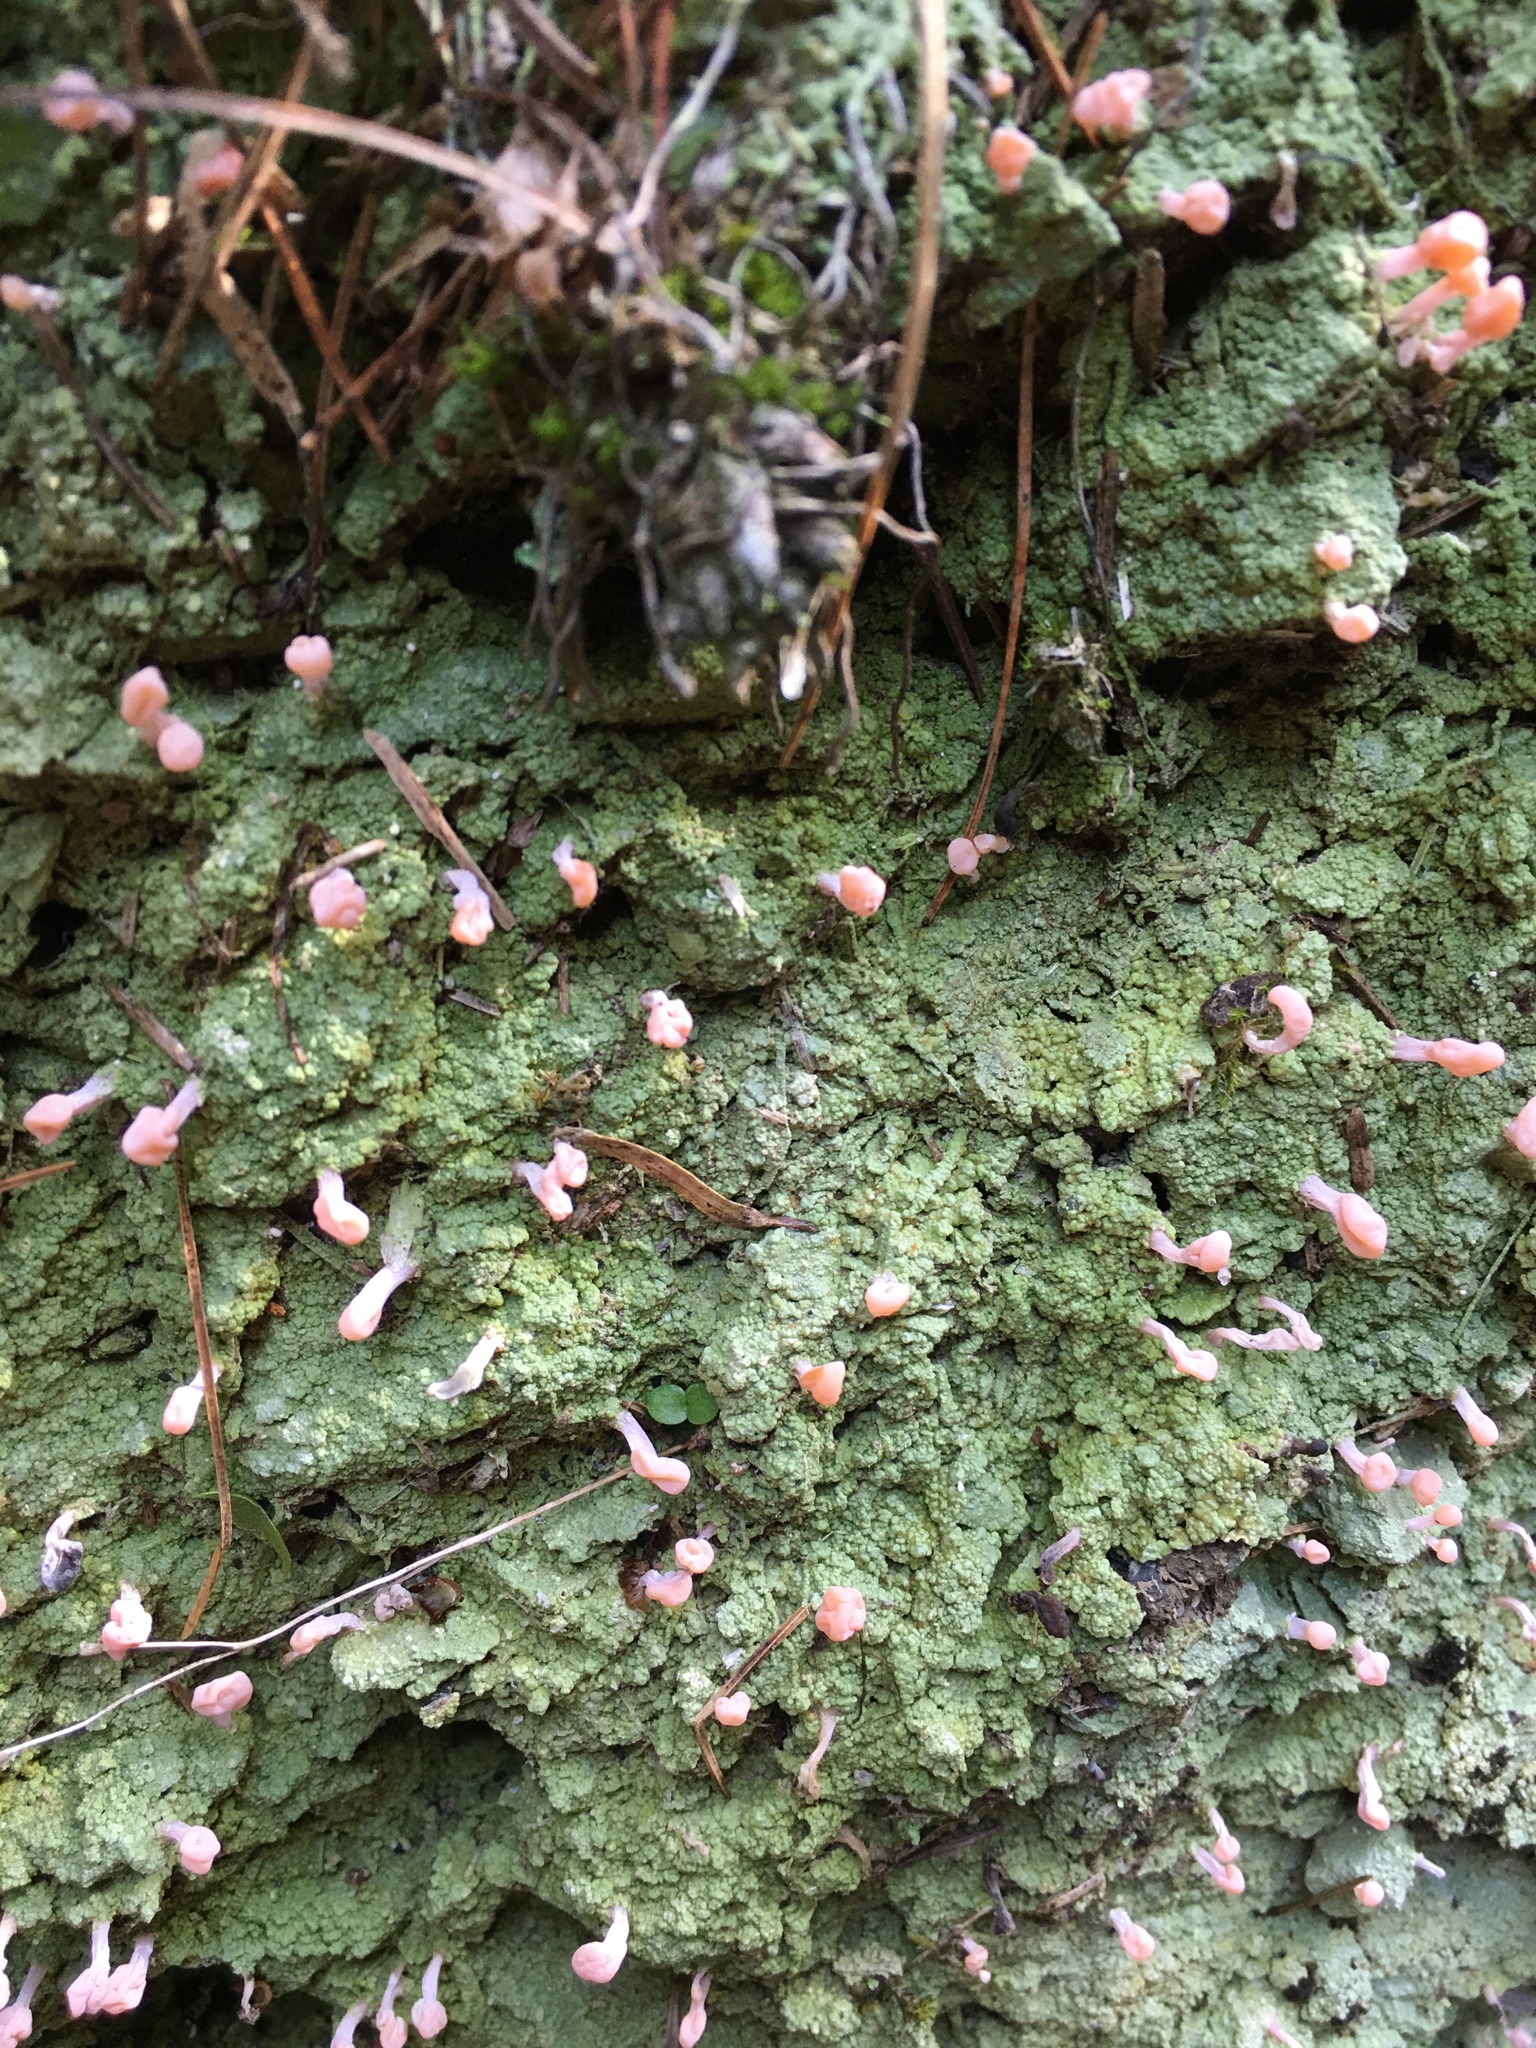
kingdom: Fungi
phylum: Ascomycota
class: Lecanoromycetes
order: Pertusariales
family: Icmadophilaceae
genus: Dibaeis
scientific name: Dibaeis arcuata
